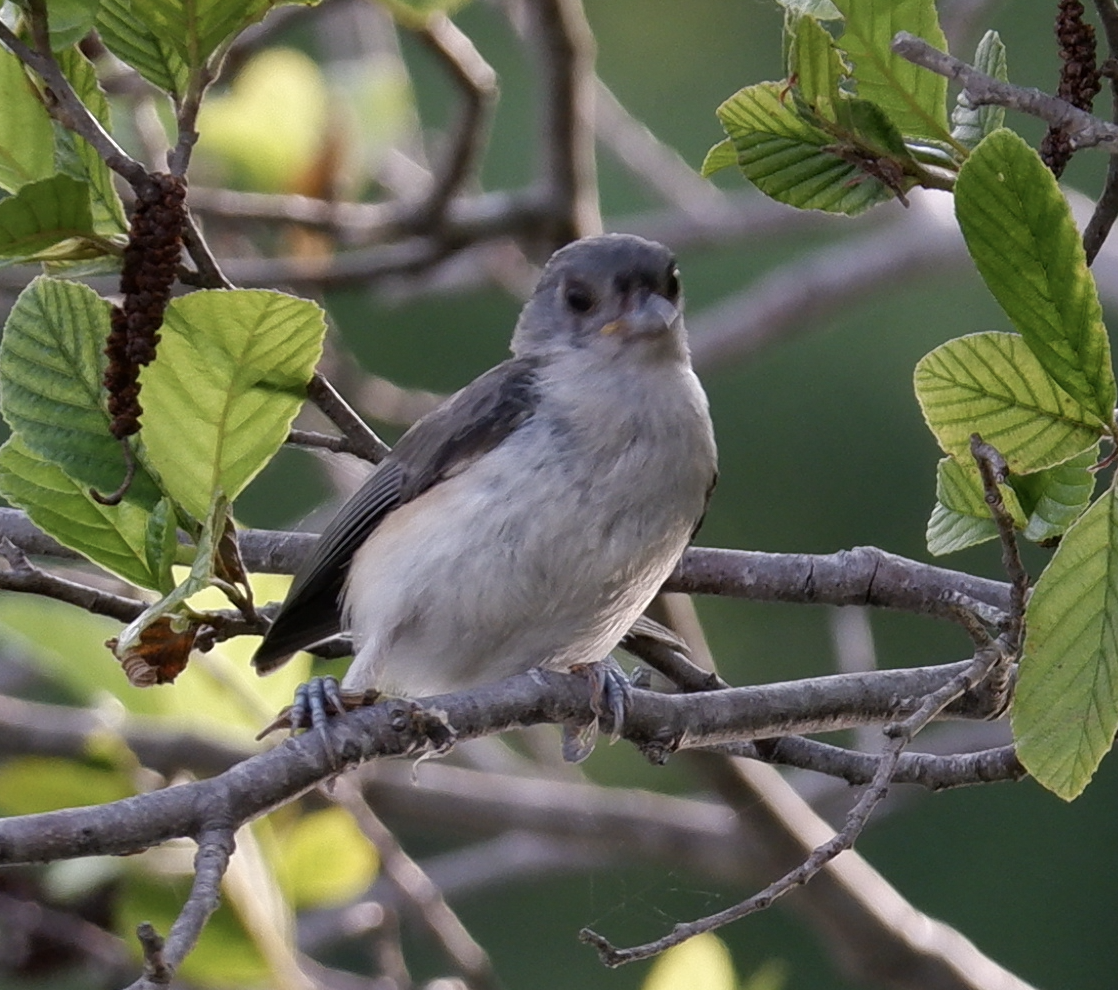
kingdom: Animalia
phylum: Chordata
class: Aves
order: Passeriformes
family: Paridae
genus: Baeolophus
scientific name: Baeolophus bicolor
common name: Tufted titmouse
